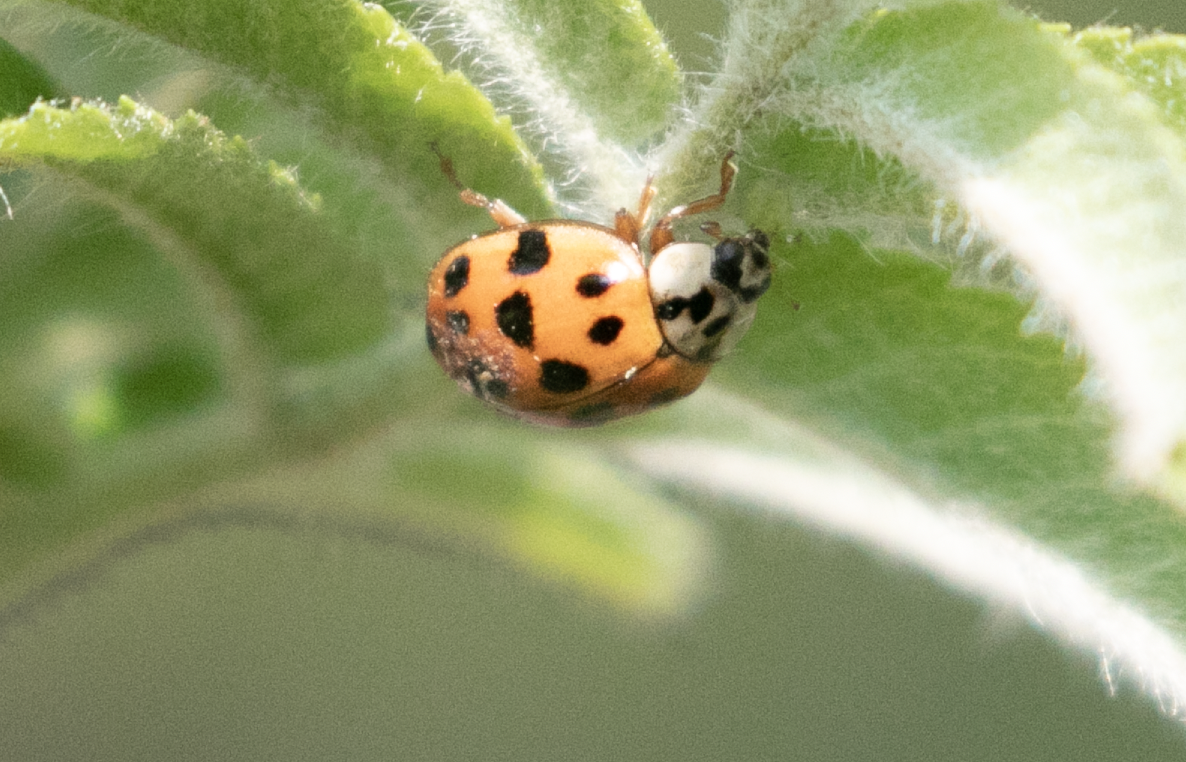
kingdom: Animalia
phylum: Arthropoda
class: Insecta
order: Coleoptera
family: Coccinellidae
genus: Harmonia
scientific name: Harmonia axyridis
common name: Harlequin ladybird
